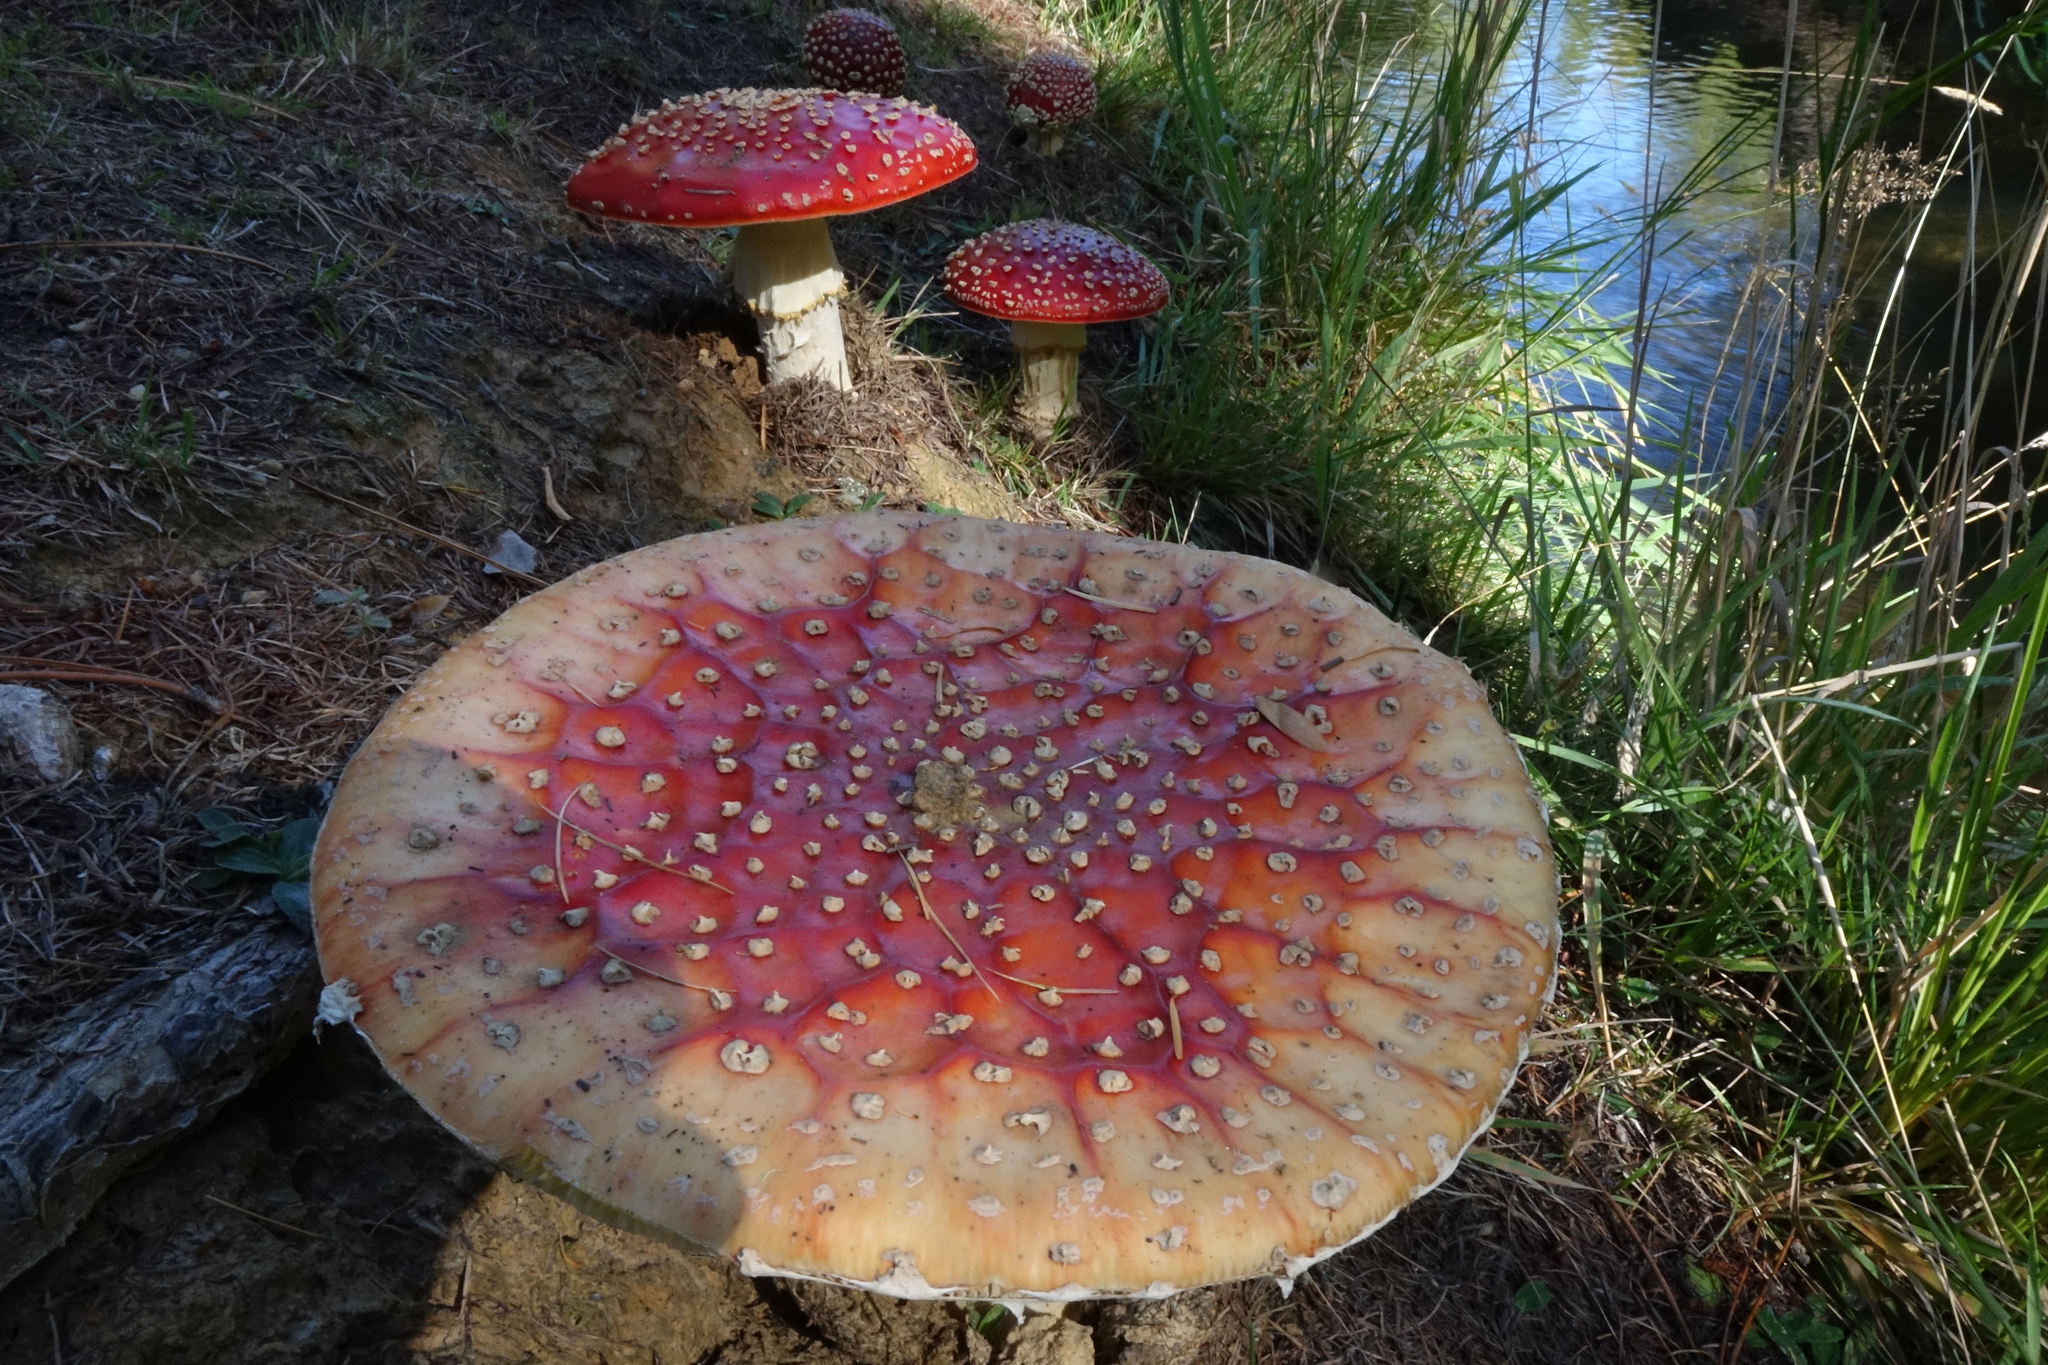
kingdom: Fungi
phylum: Basidiomycota
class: Agaricomycetes
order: Agaricales
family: Amanitaceae
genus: Amanita
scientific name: Amanita muscaria
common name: Fly agaric
